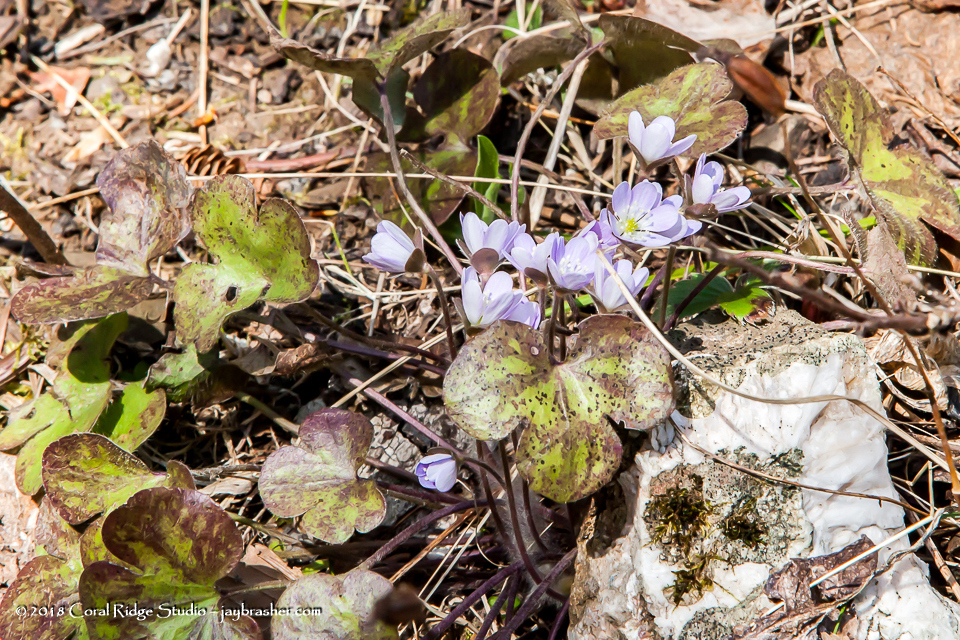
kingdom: Plantae
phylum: Tracheophyta
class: Magnoliopsida
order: Ranunculales
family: Ranunculaceae
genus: Hepatica
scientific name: Hepatica americana
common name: American hepatica
